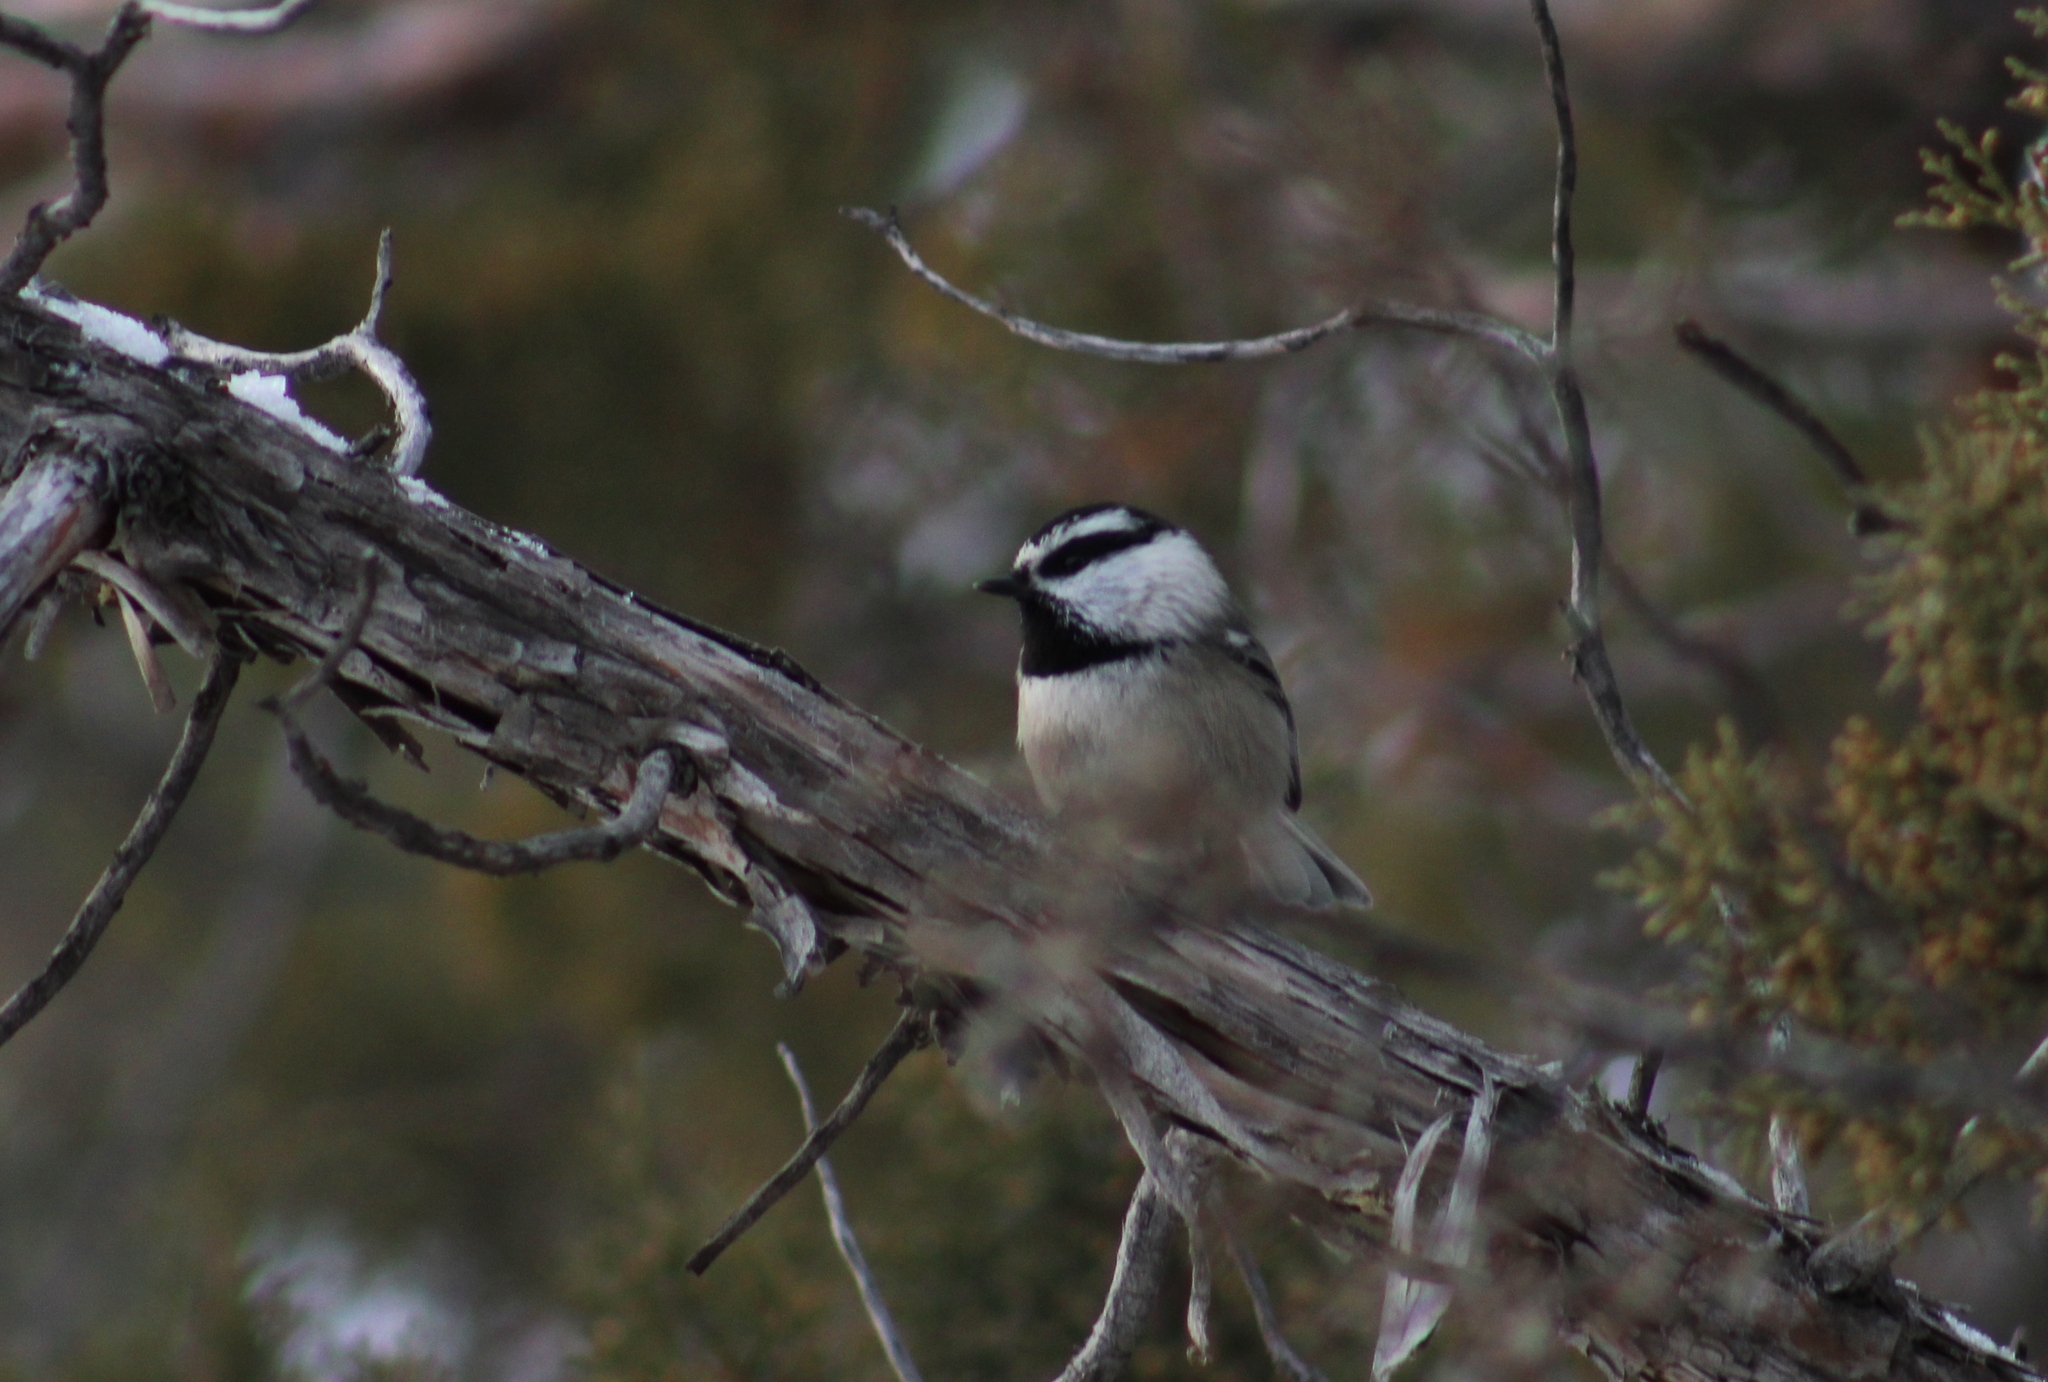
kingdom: Animalia
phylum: Chordata
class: Aves
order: Passeriformes
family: Paridae
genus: Poecile
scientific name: Poecile gambeli
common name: Mountain chickadee
